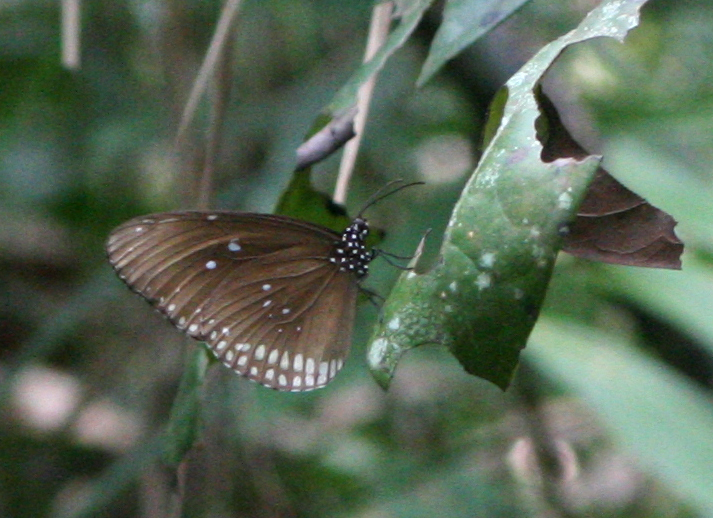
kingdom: Animalia
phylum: Arthropoda
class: Insecta
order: Lepidoptera
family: Nymphalidae
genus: Euploea
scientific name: Euploea core
